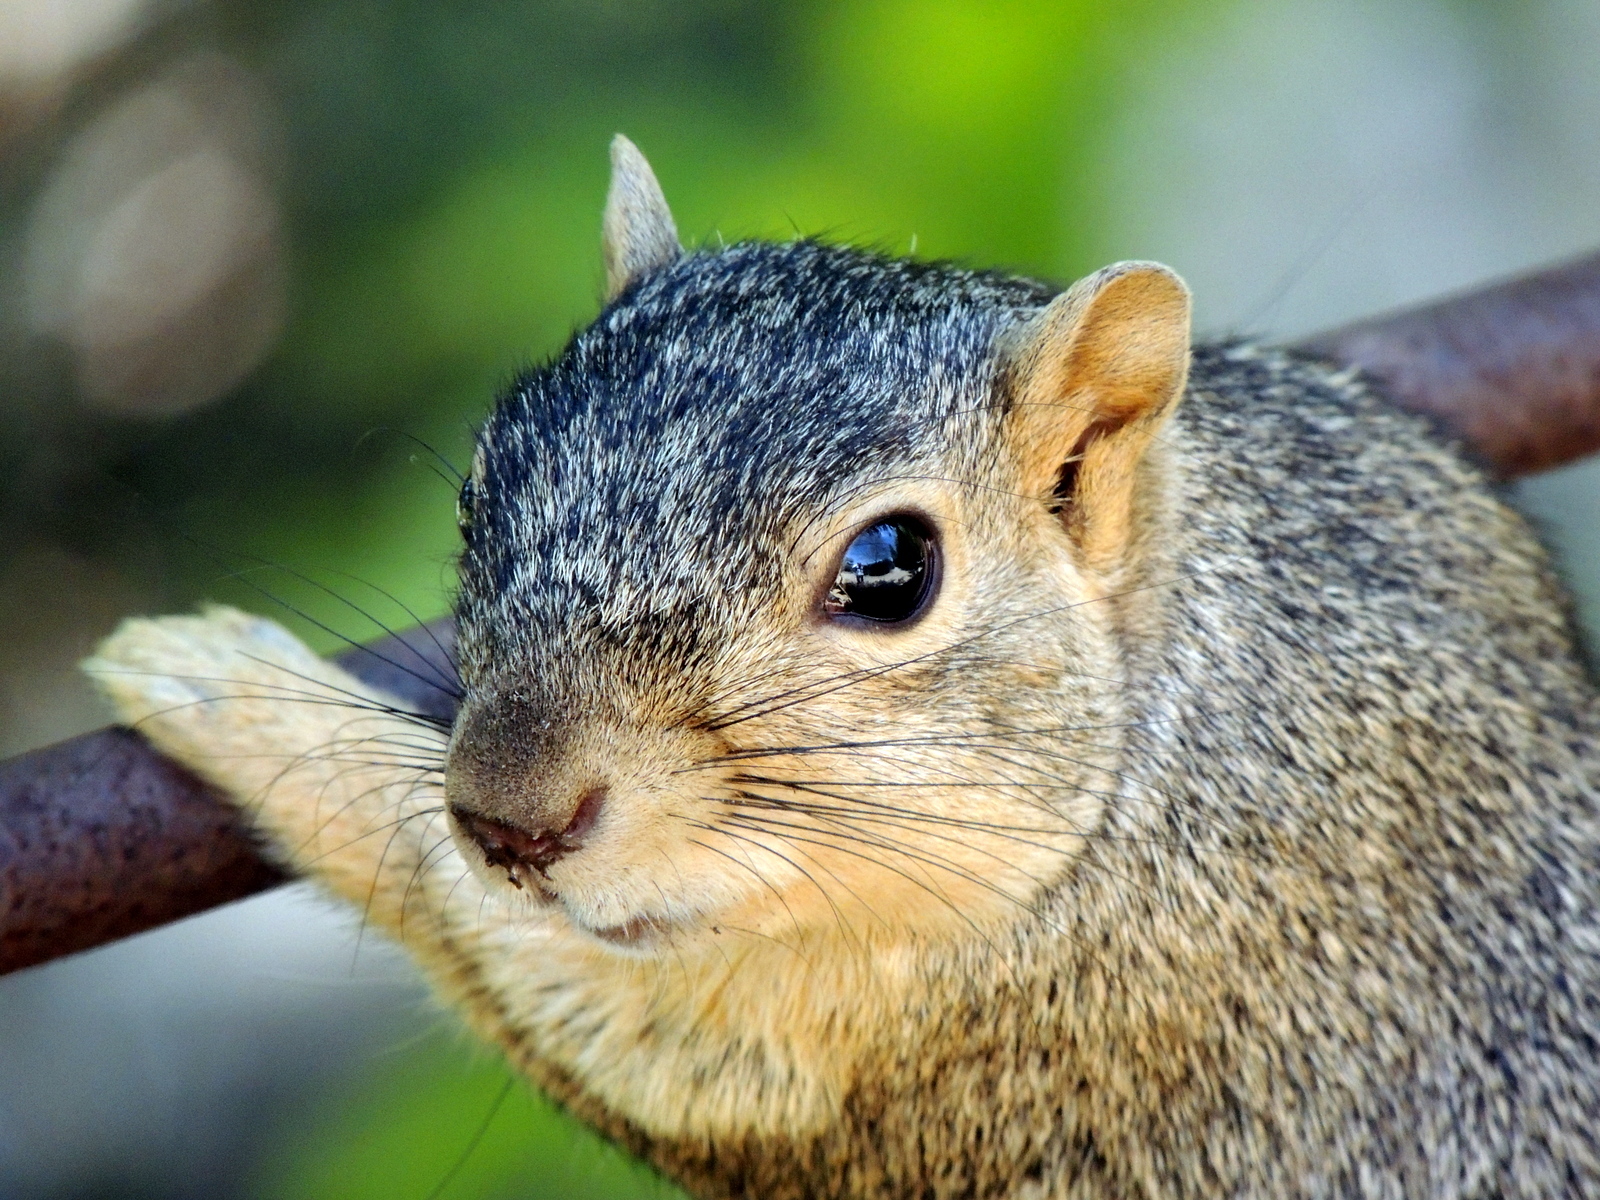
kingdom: Animalia
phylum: Chordata
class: Mammalia
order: Rodentia
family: Sciuridae
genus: Sciurus
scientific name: Sciurus niger
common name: Fox squirrel
